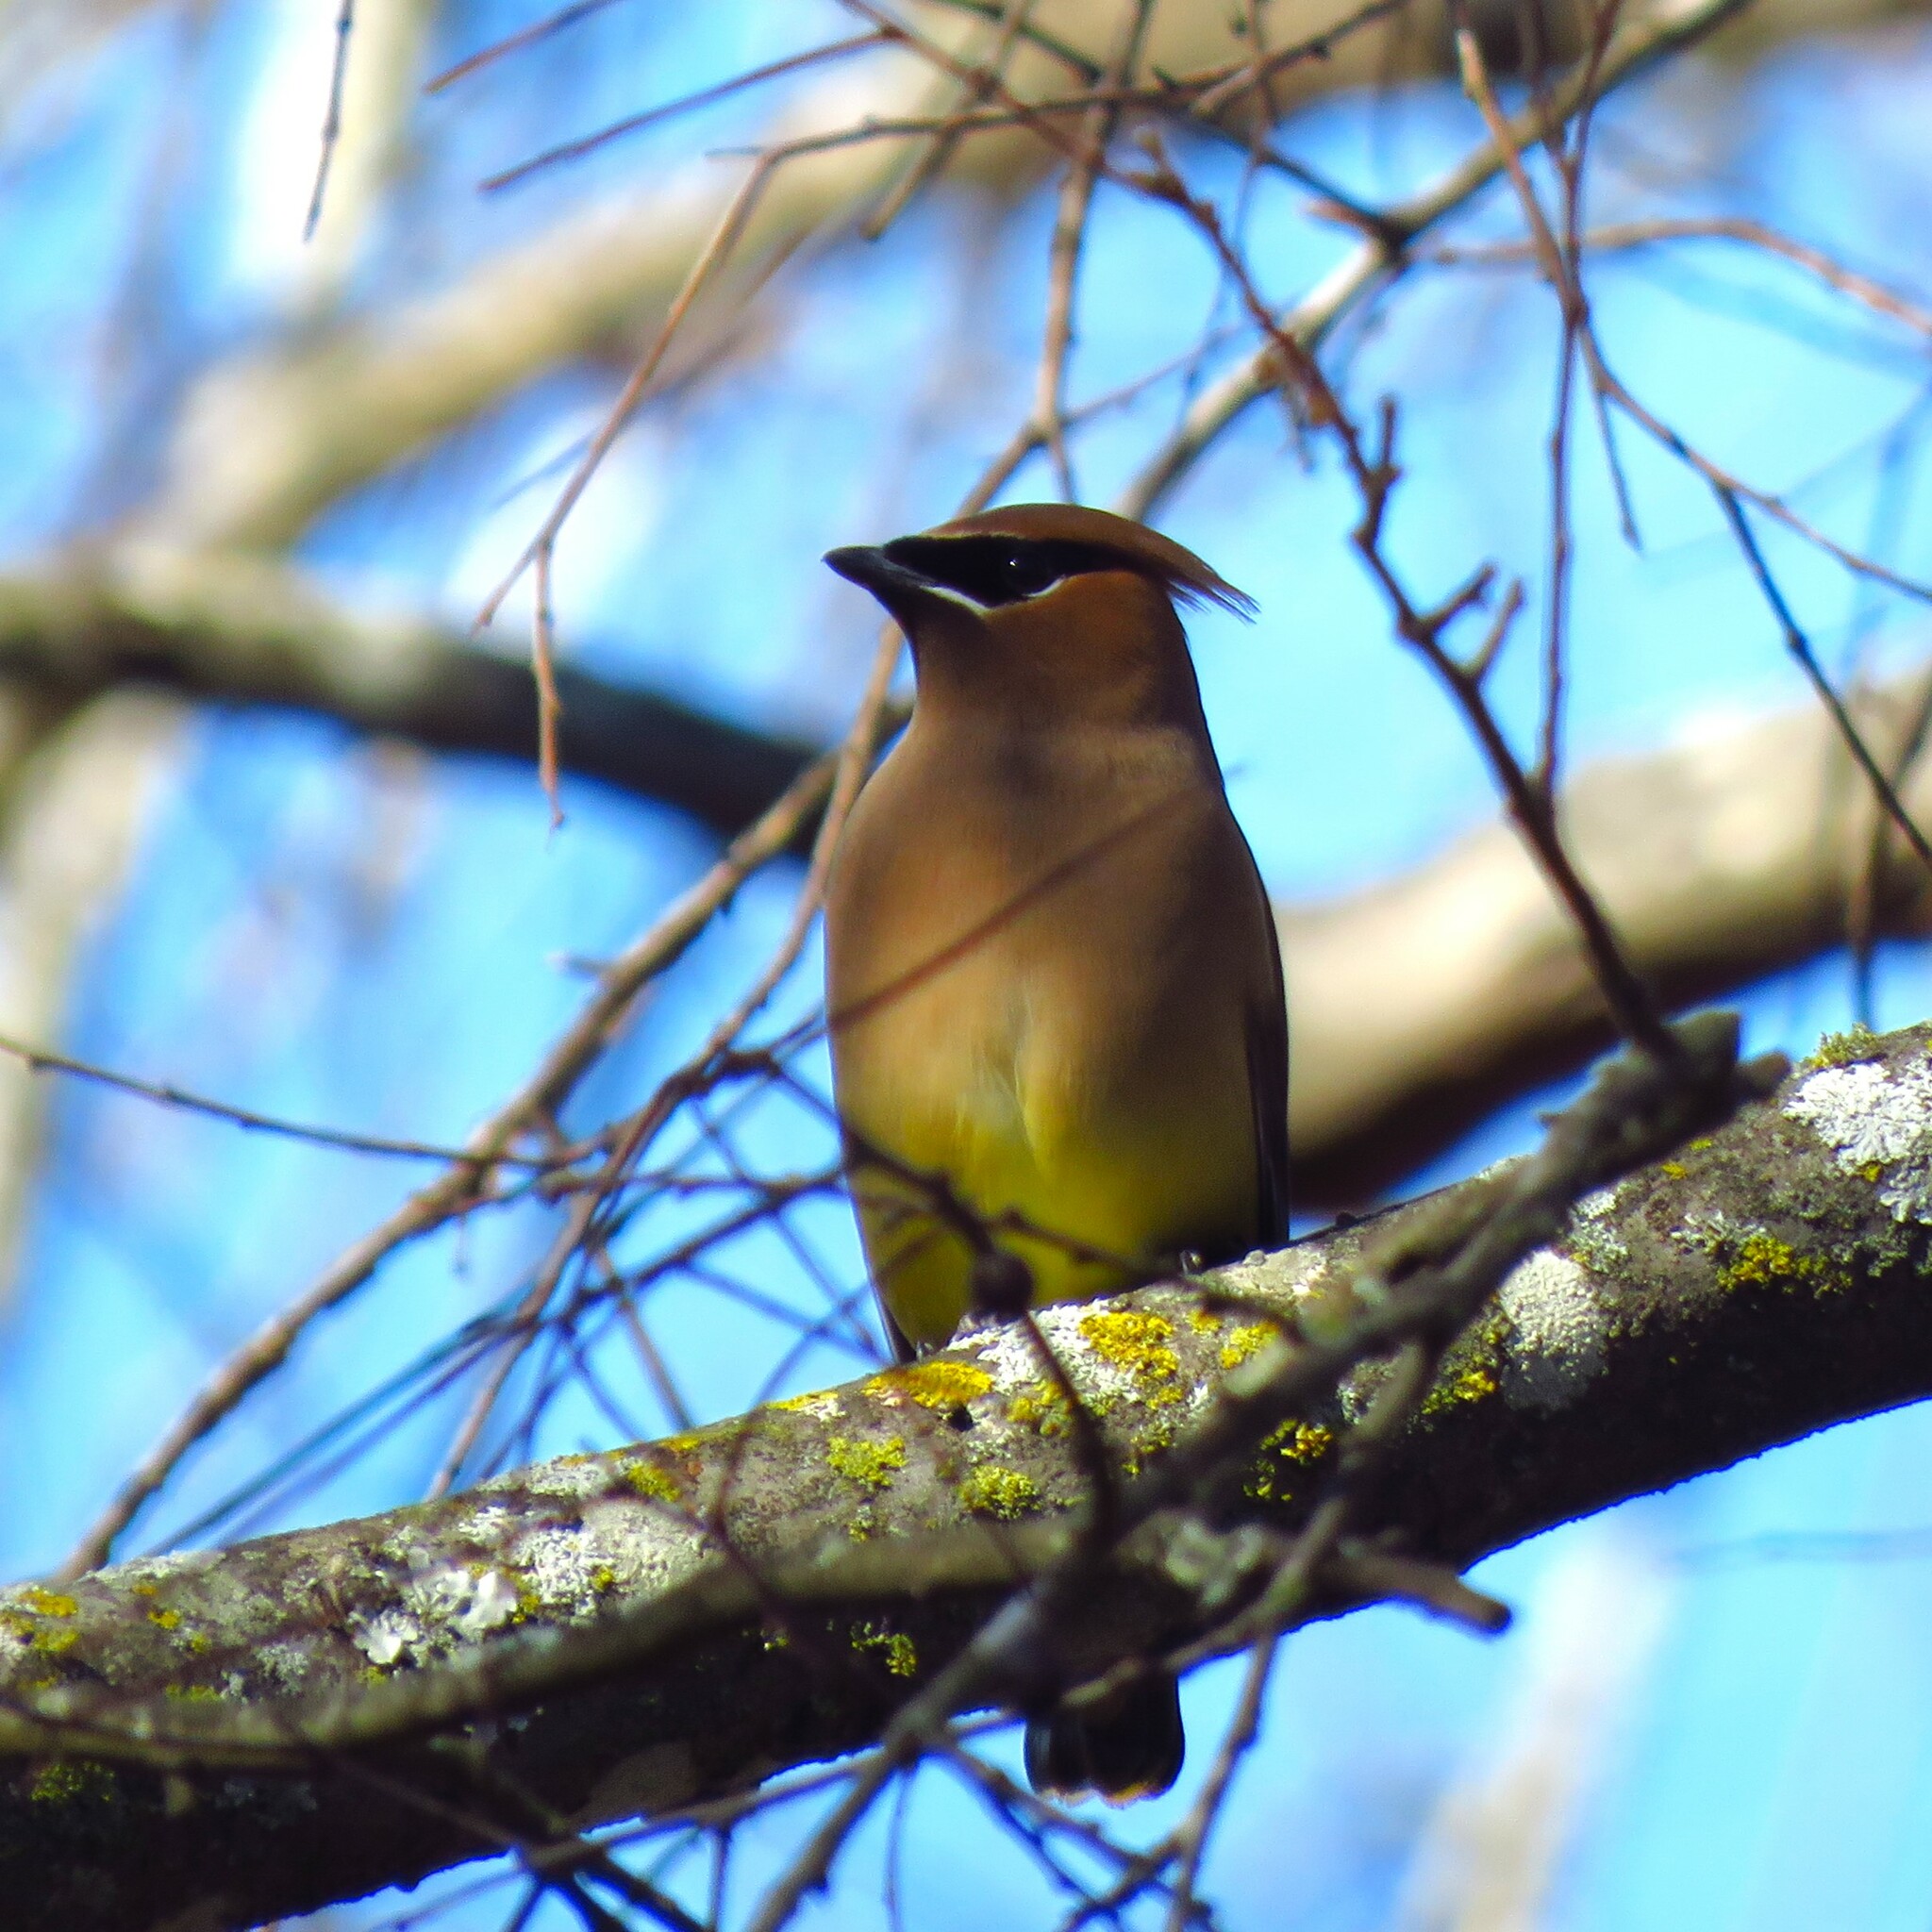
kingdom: Animalia
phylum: Chordata
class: Aves
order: Passeriformes
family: Bombycillidae
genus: Bombycilla
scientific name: Bombycilla cedrorum
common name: Cedar waxwing
